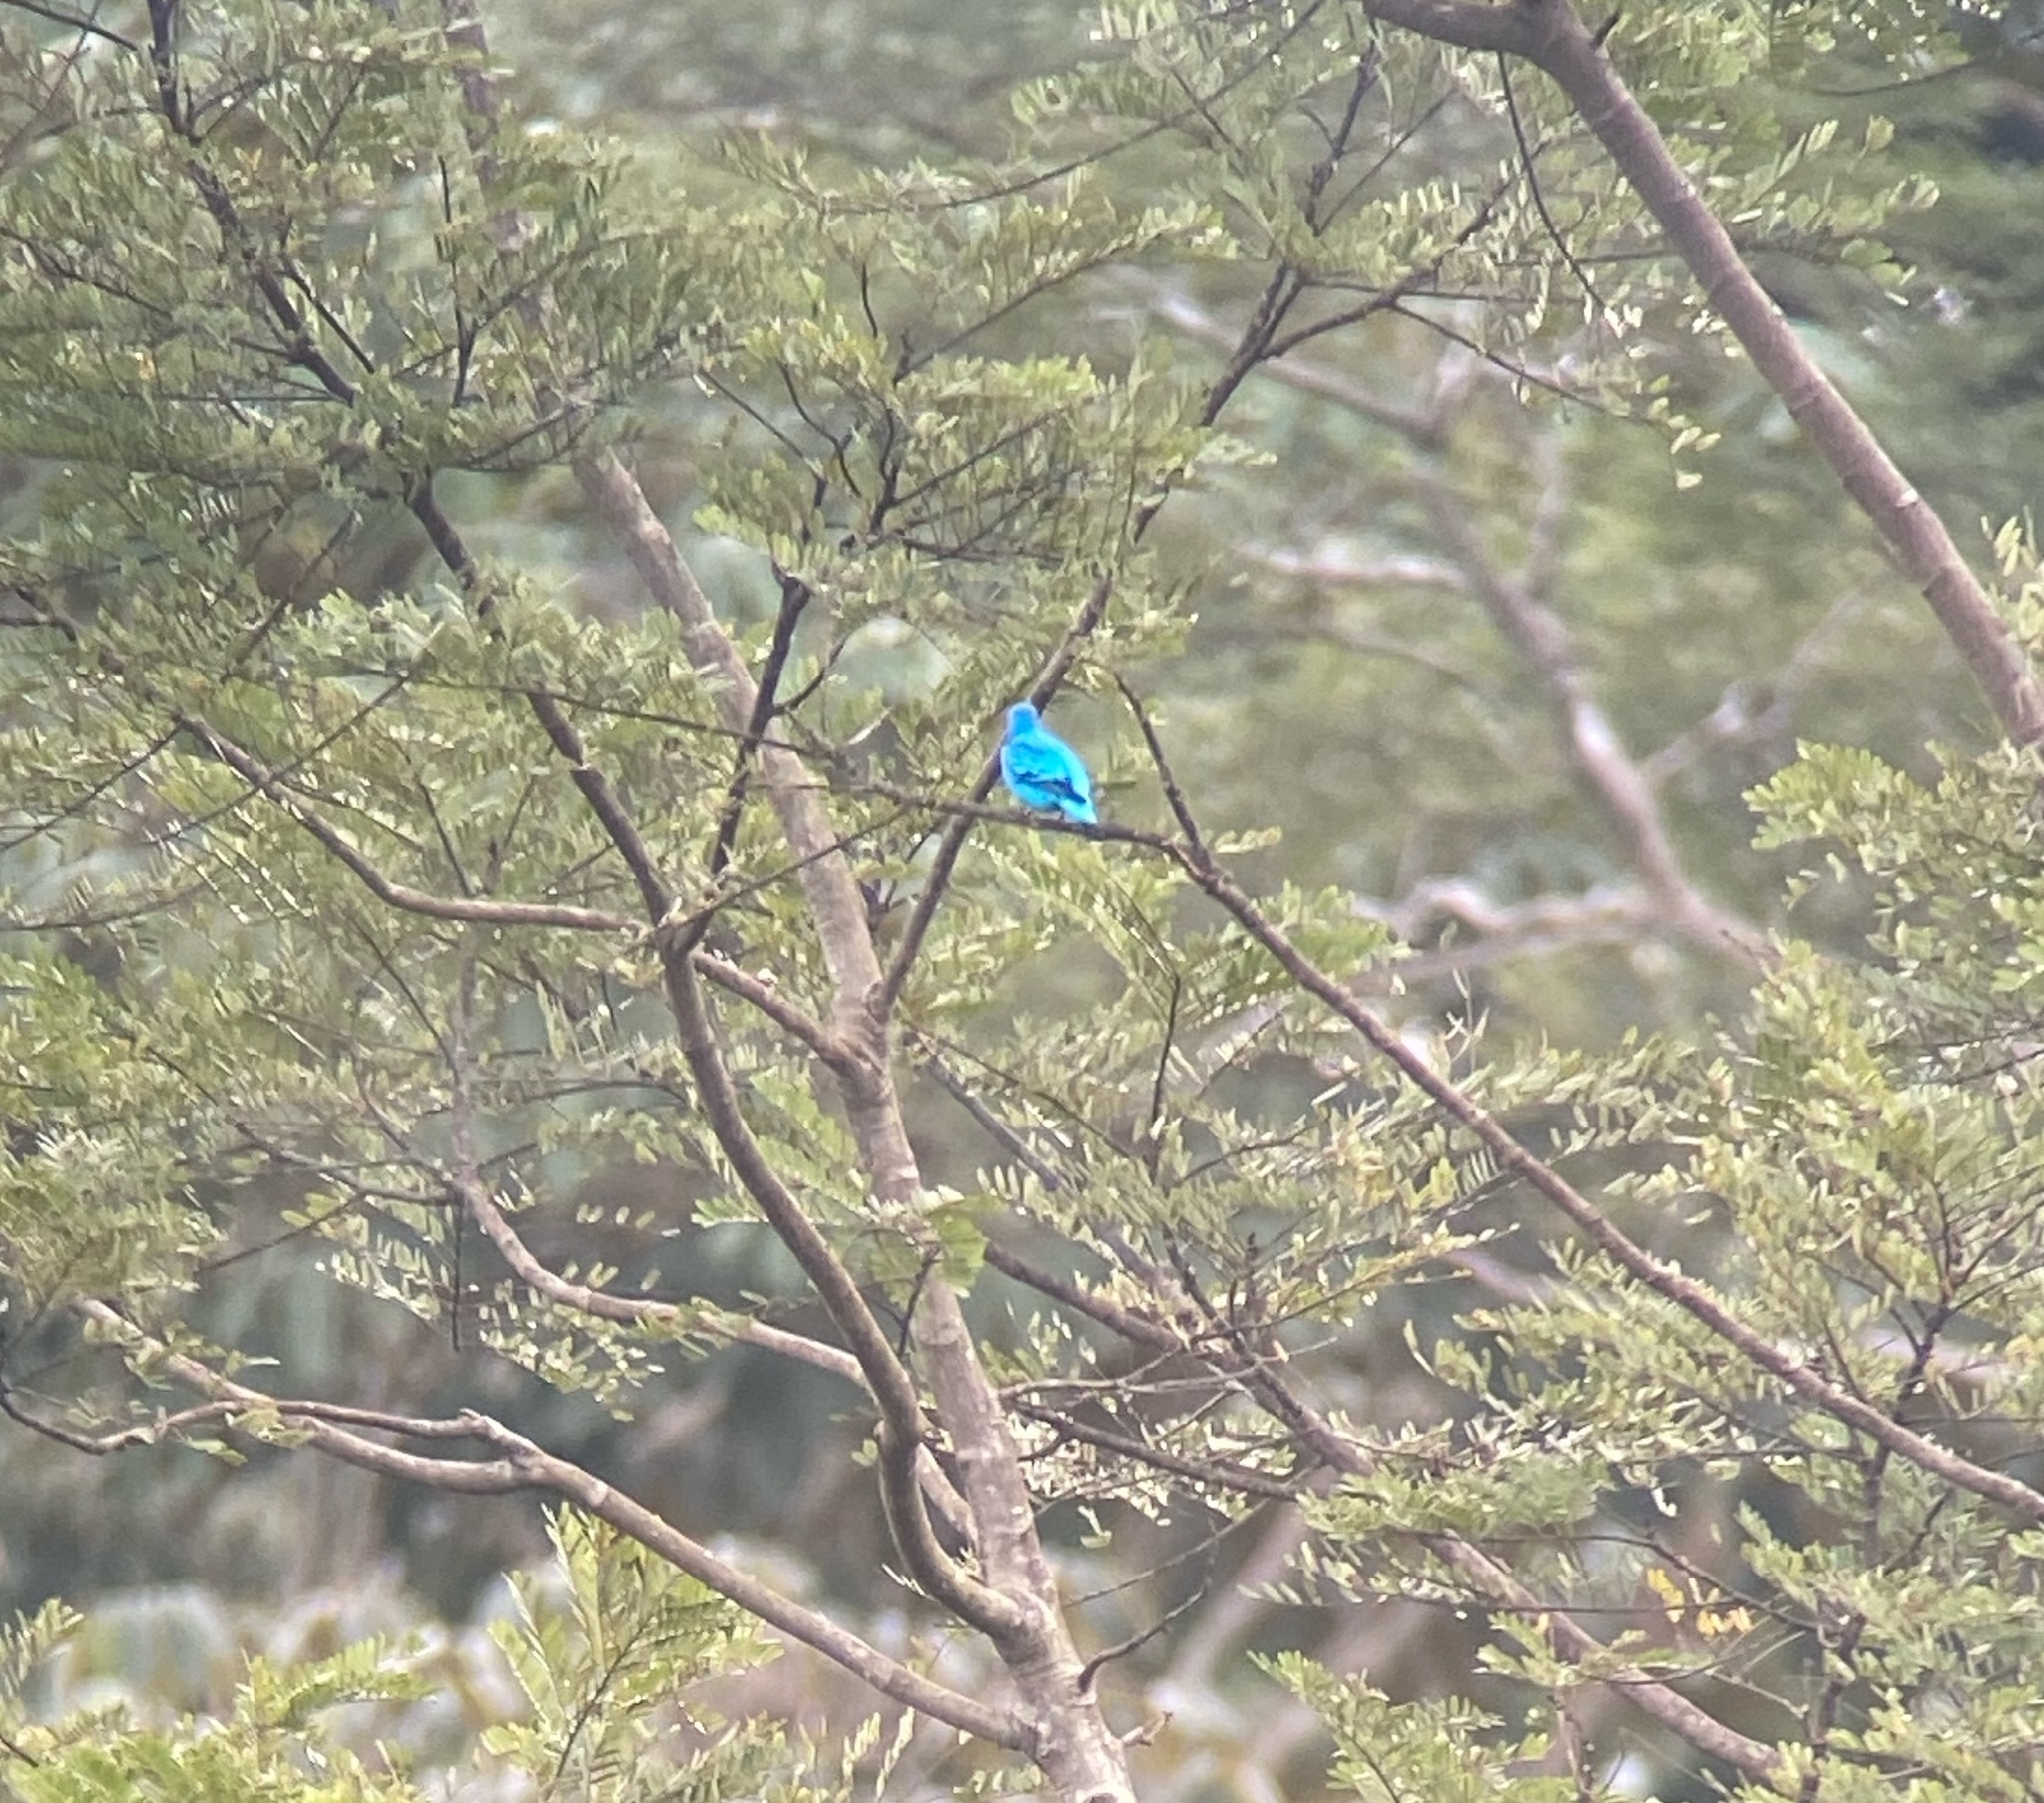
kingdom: Animalia
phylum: Chordata
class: Aves
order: Passeriformes
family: Cotingidae
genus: Cotinga
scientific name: Cotinga nattererii
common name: Blue cotinga
